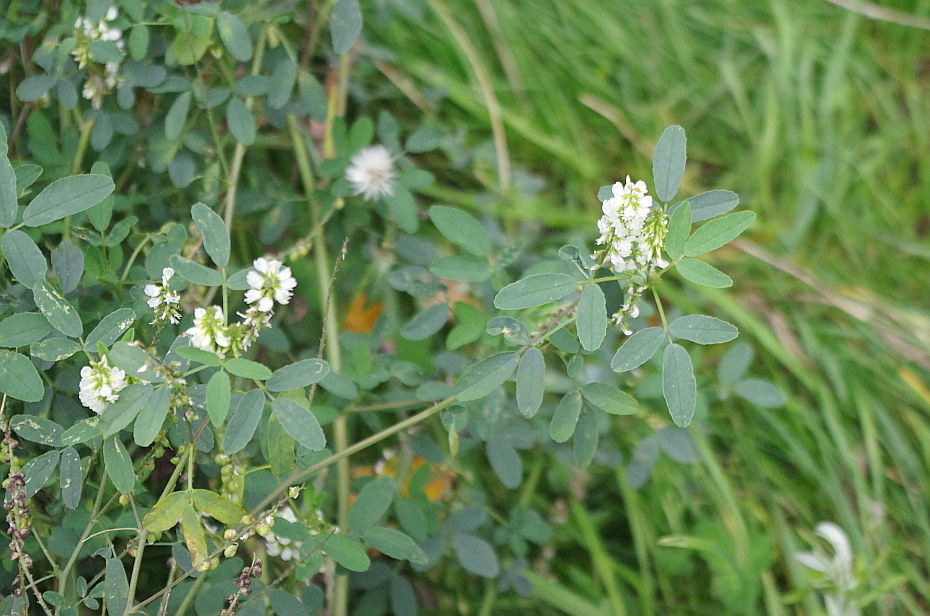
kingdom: Plantae
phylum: Tracheophyta
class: Magnoliopsida
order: Fabales
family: Fabaceae
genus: Melilotus
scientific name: Melilotus albus
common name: White melilot
